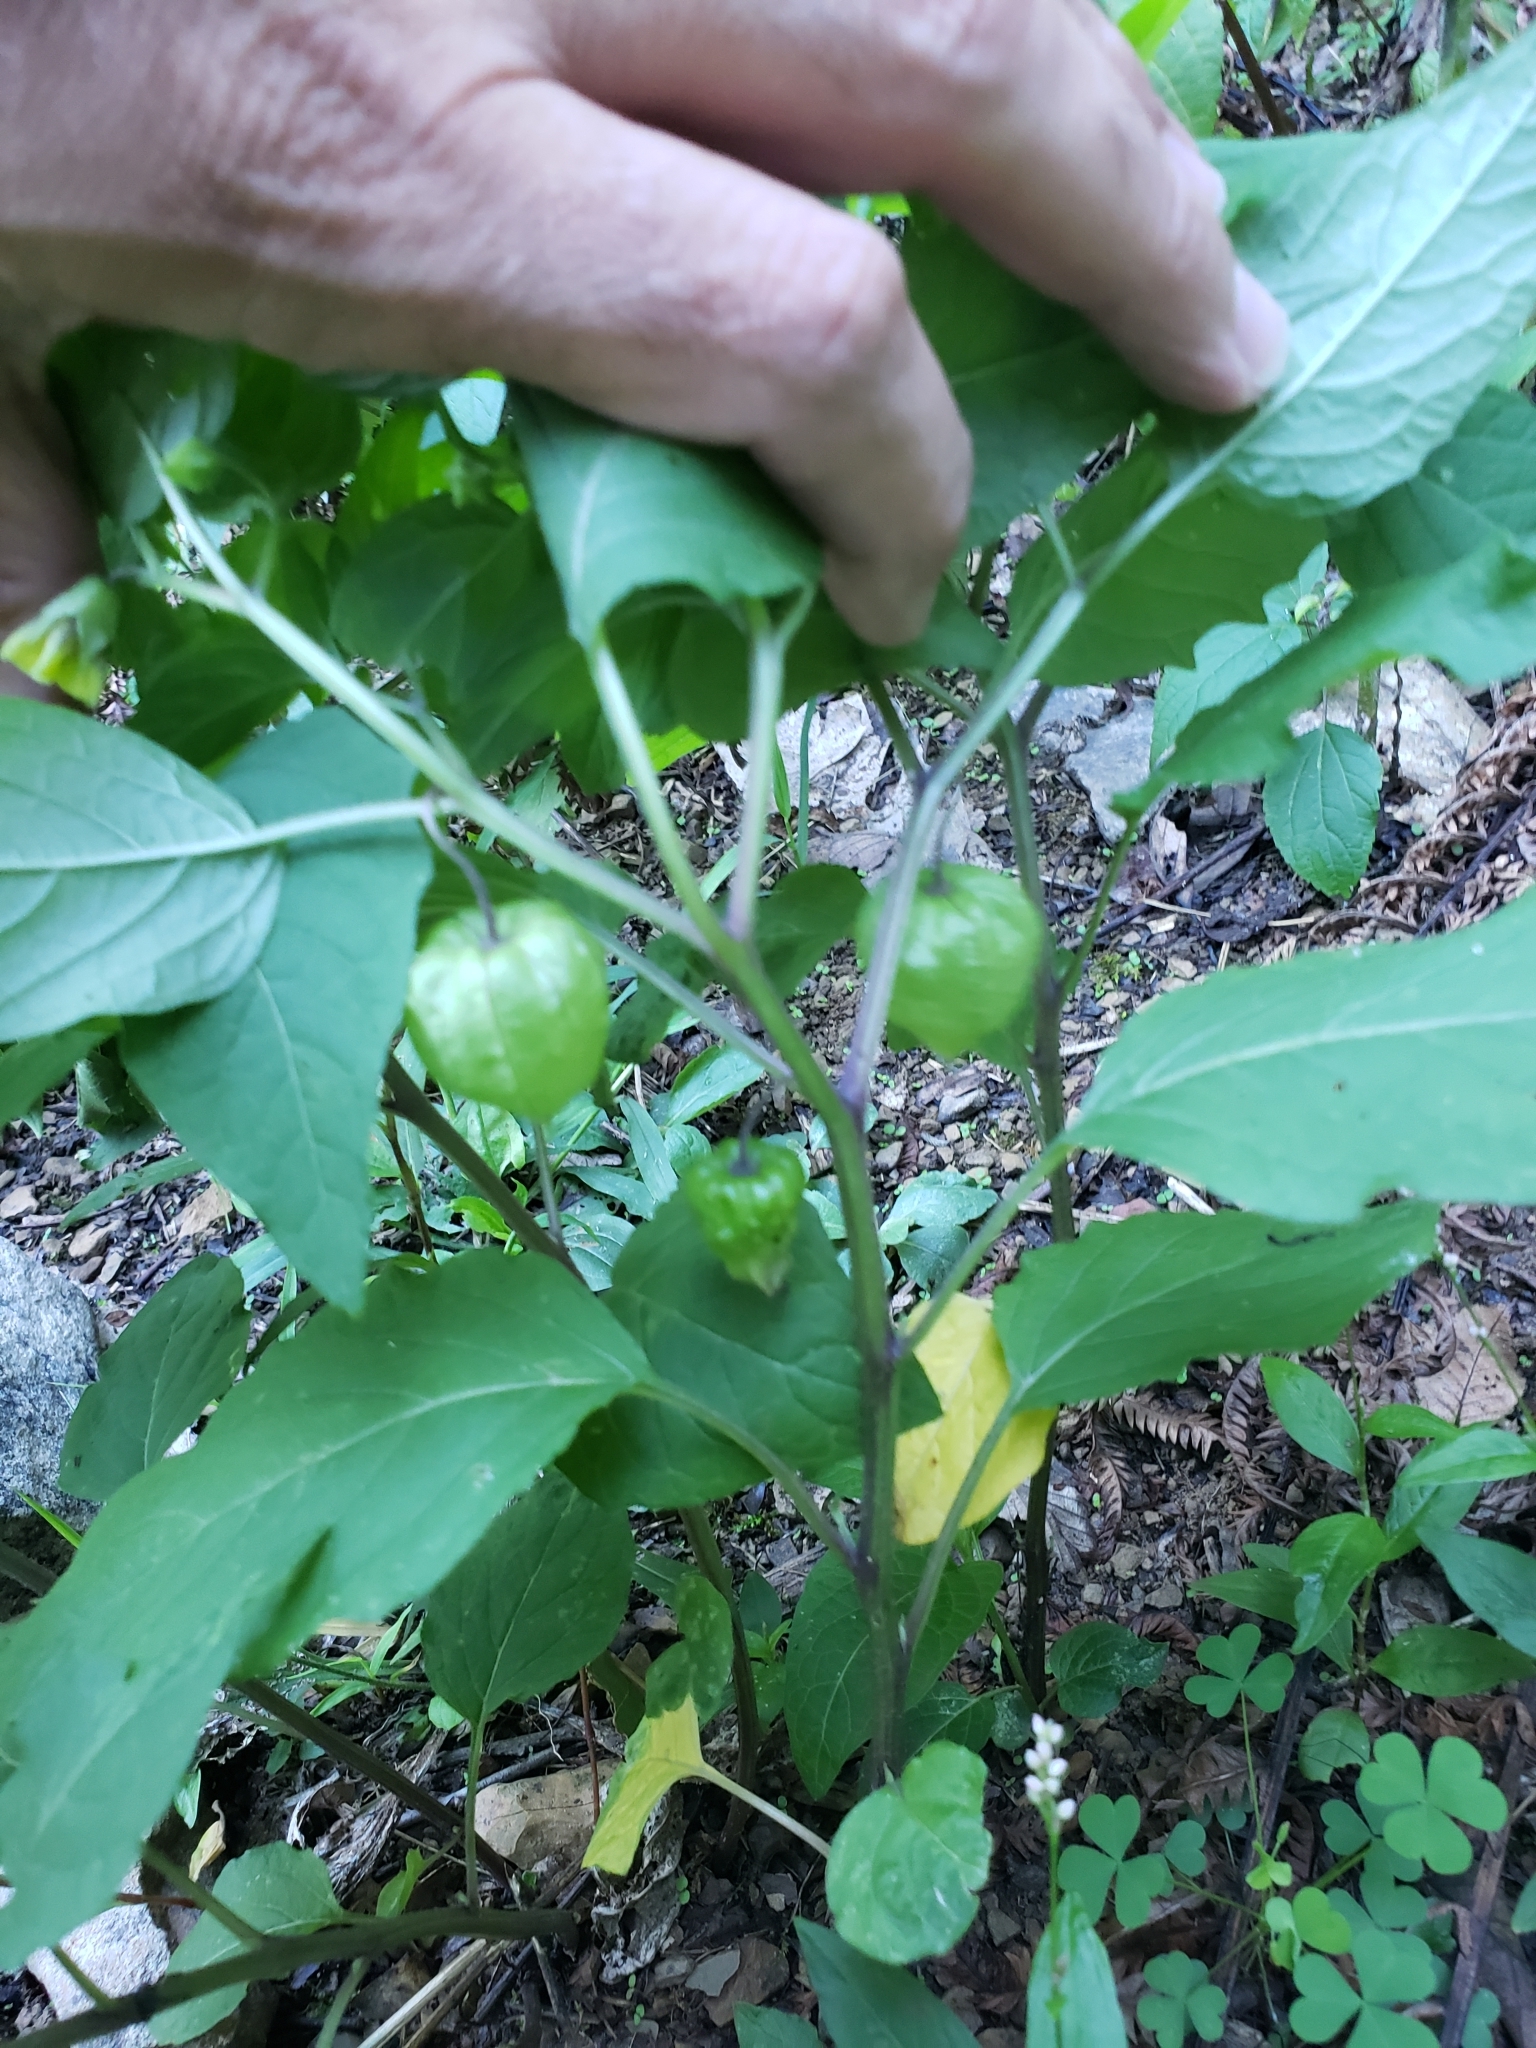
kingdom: Plantae
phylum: Tracheophyta
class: Magnoliopsida
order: Solanales
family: Solanaceae
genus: Physalis
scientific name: Physalis longifolia
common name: Common ground-cherry
